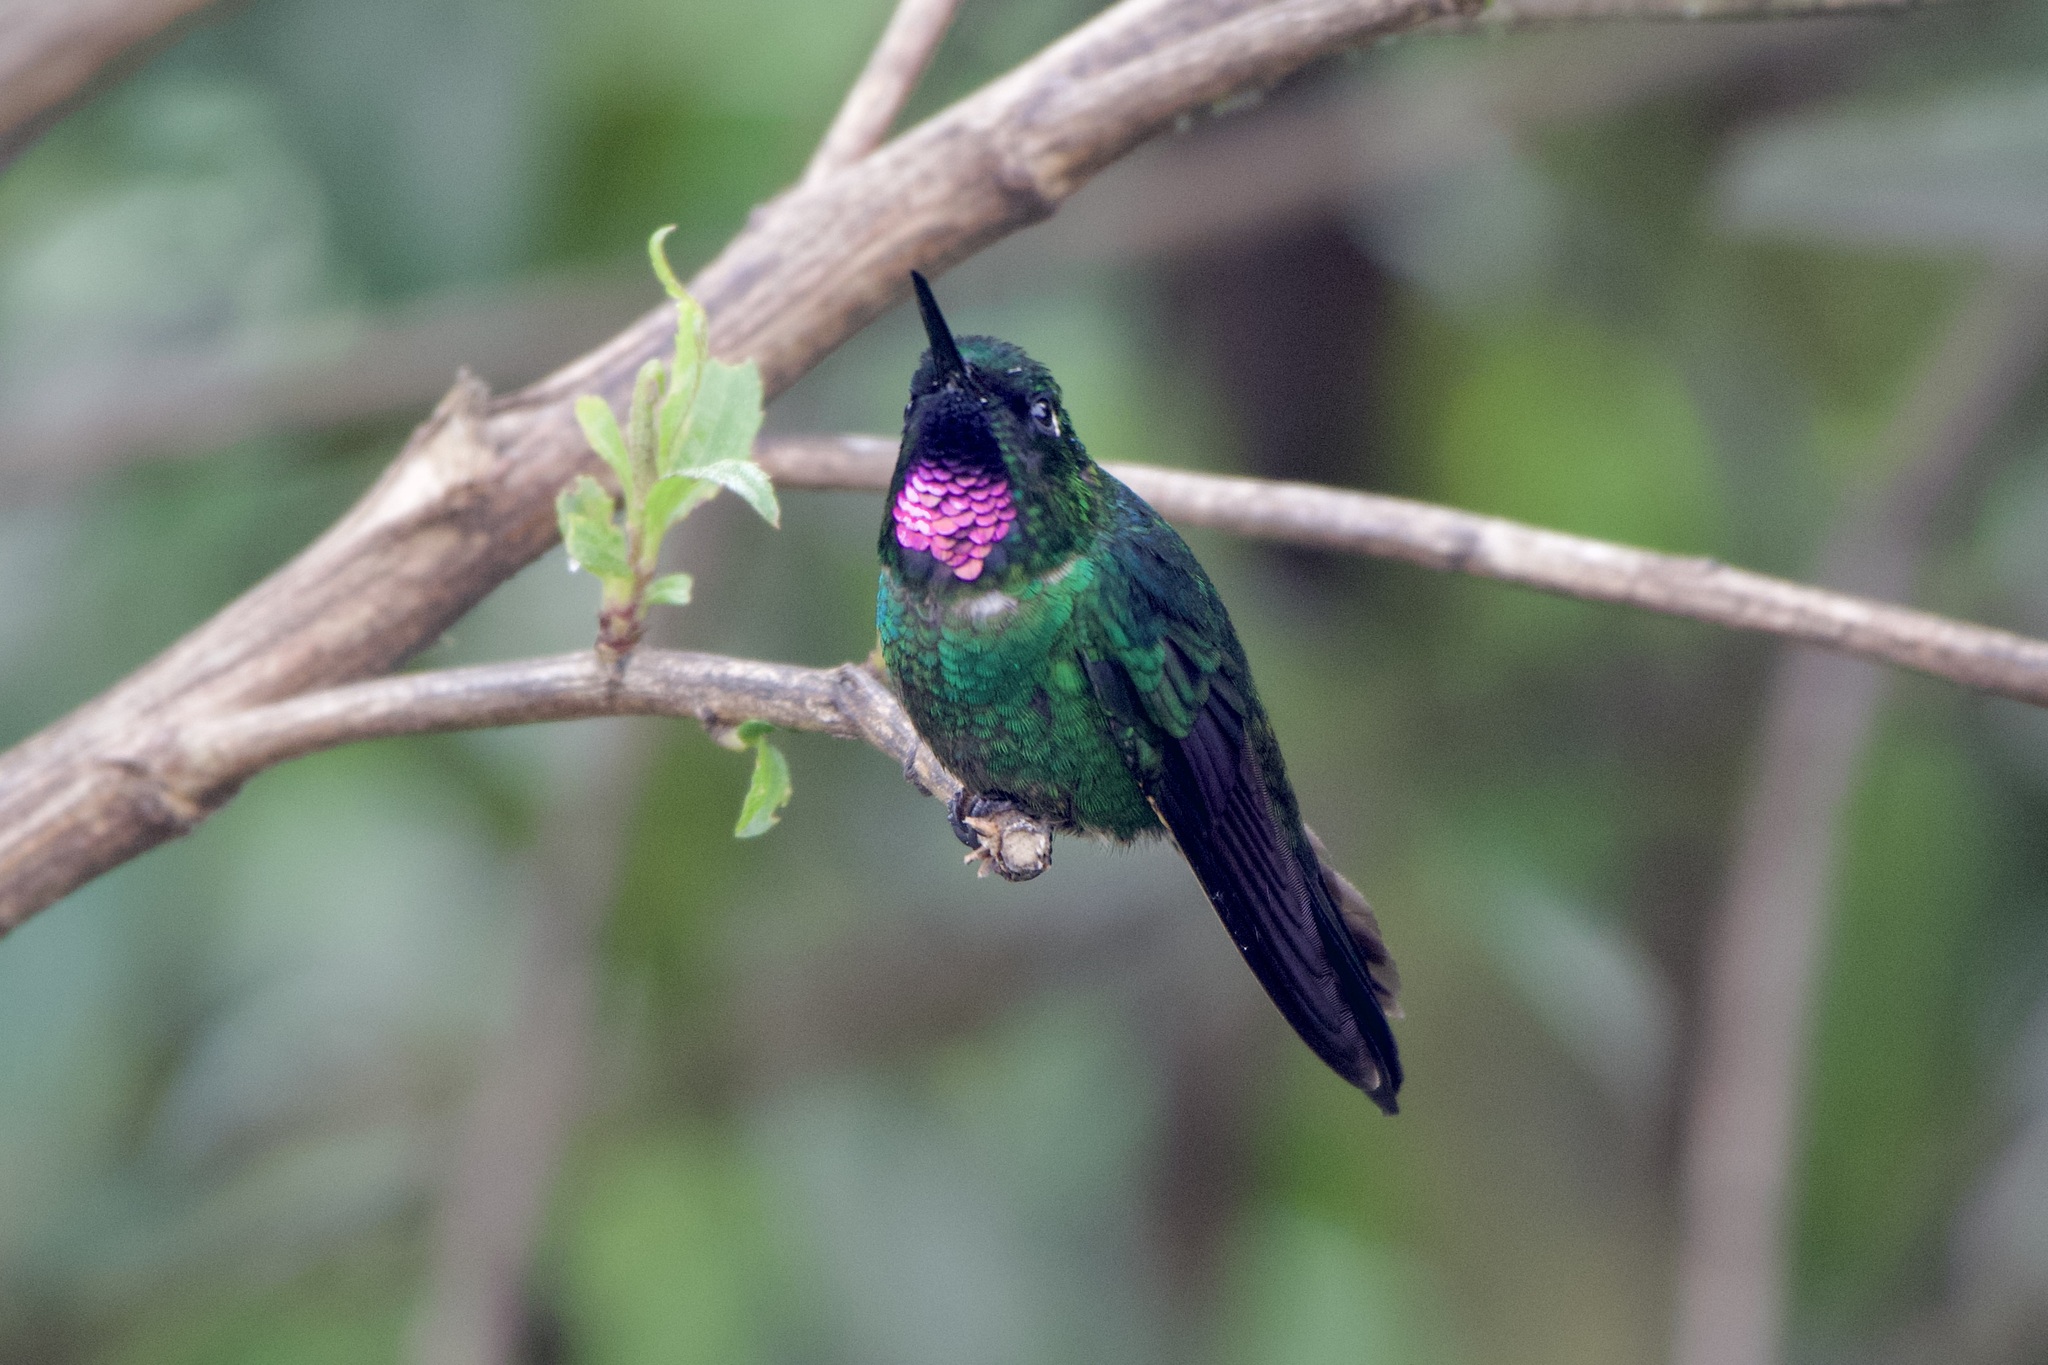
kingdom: Animalia
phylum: Chordata
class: Aves
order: Apodiformes
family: Trochilidae
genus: Heliangelus
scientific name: Heliangelus exortis
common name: Tourmaline sunangel
